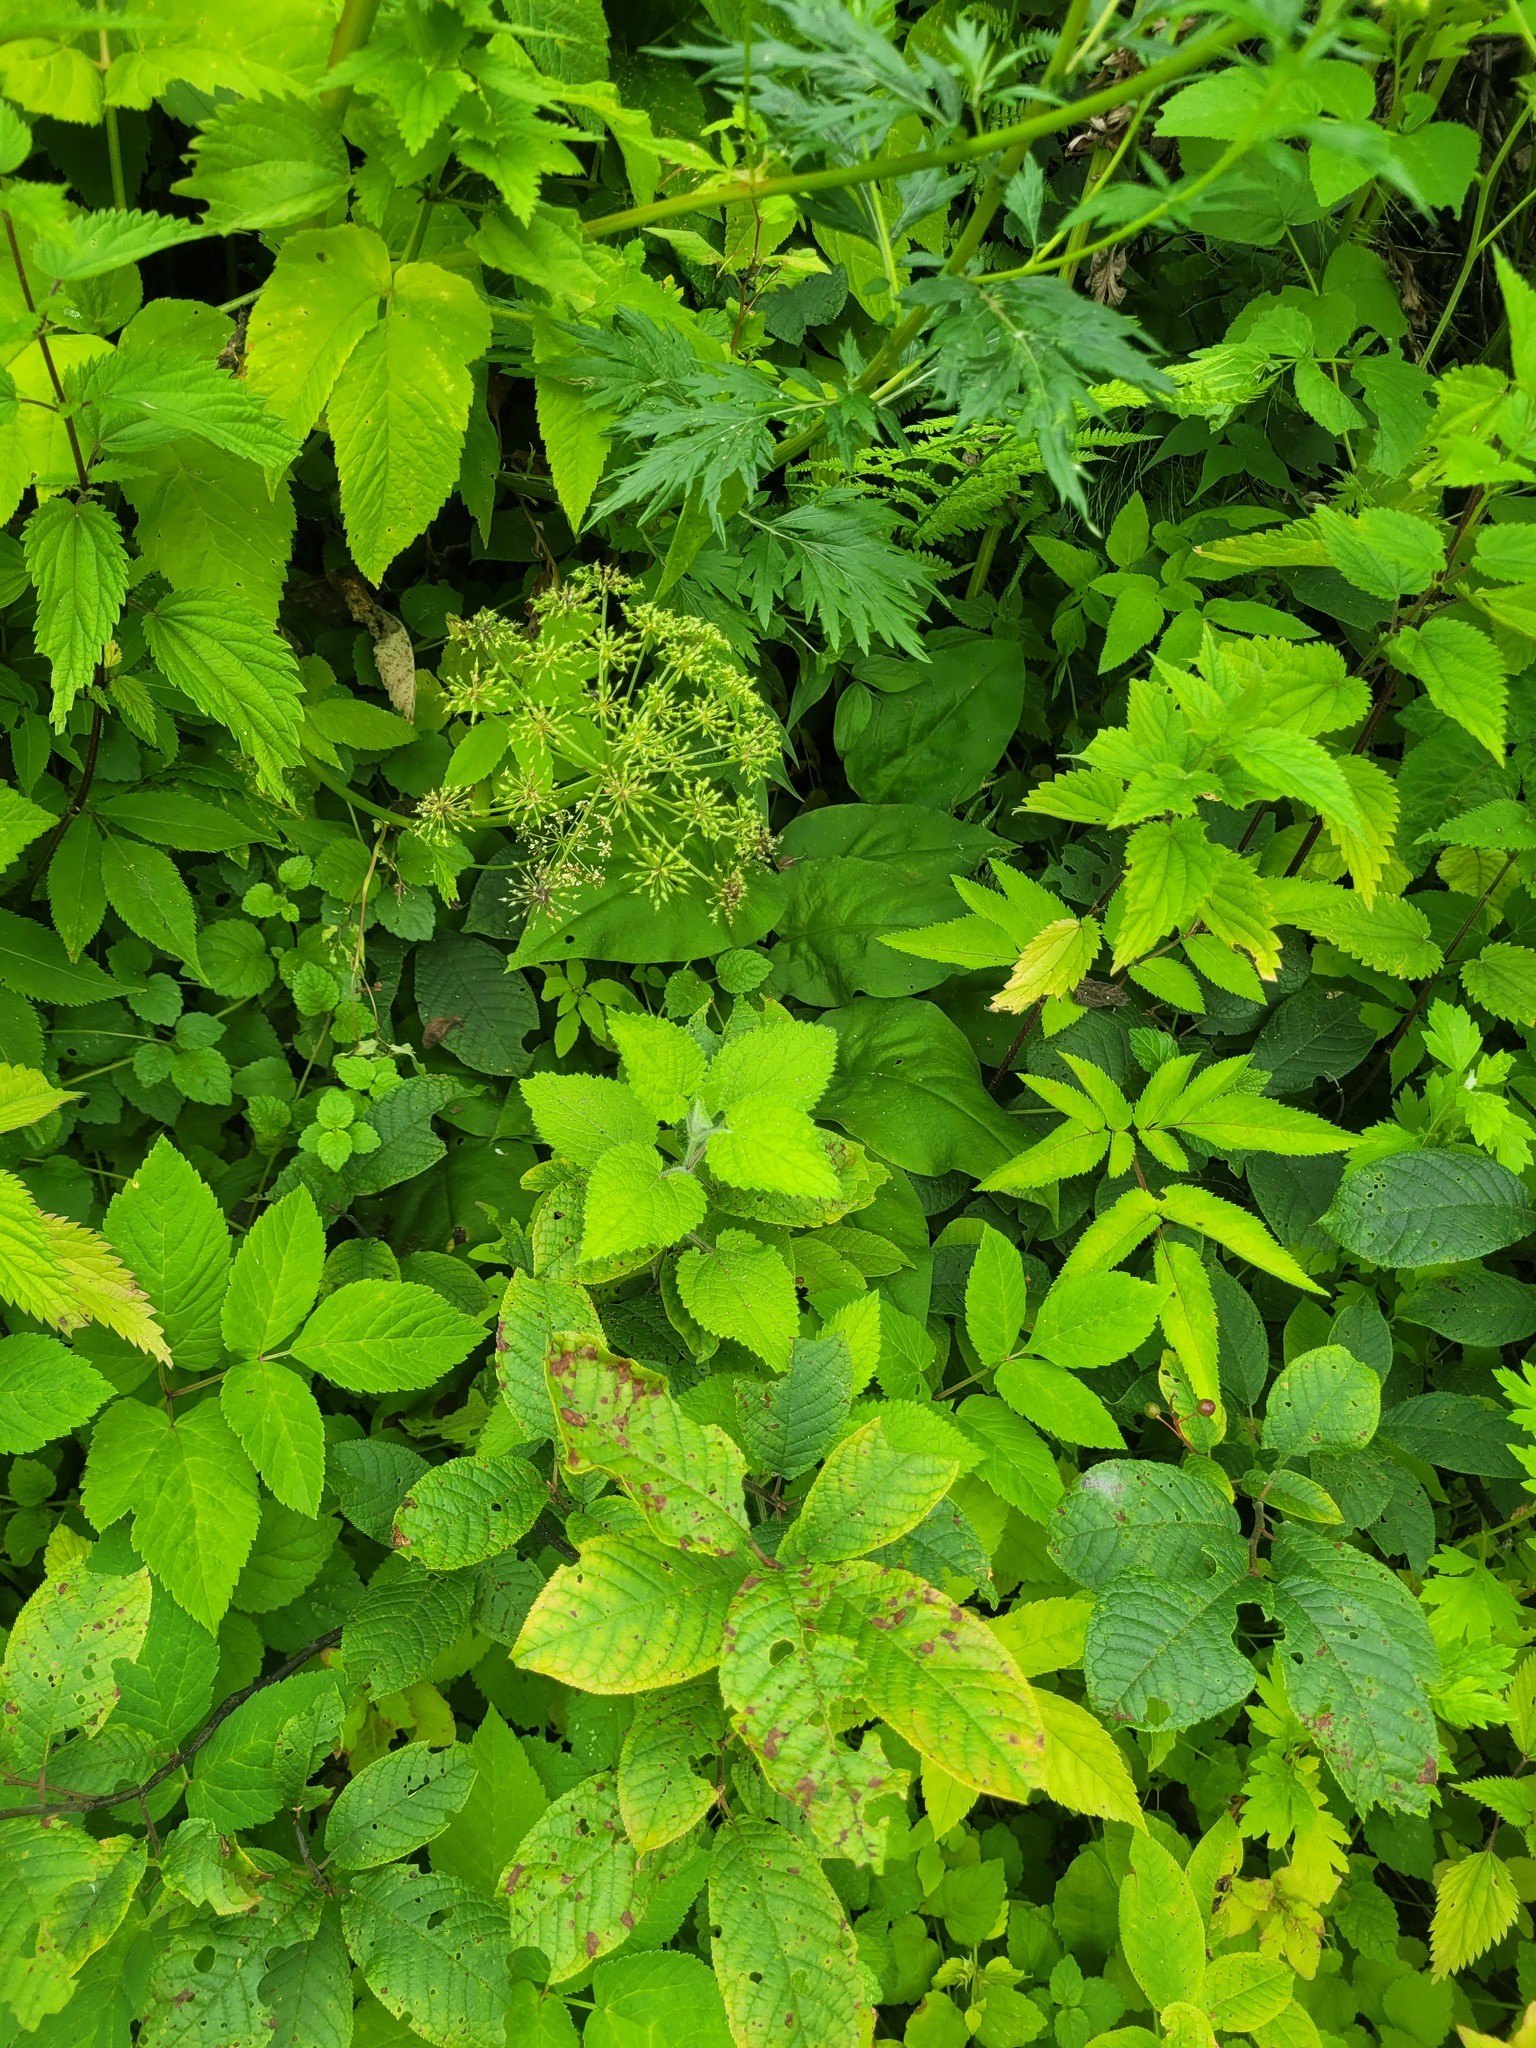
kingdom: Plantae
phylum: Tracheophyta
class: Magnoliopsida
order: Lamiales
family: Lamiaceae
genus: Stachys
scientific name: Stachys sylvatica
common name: Hedge woundwort
